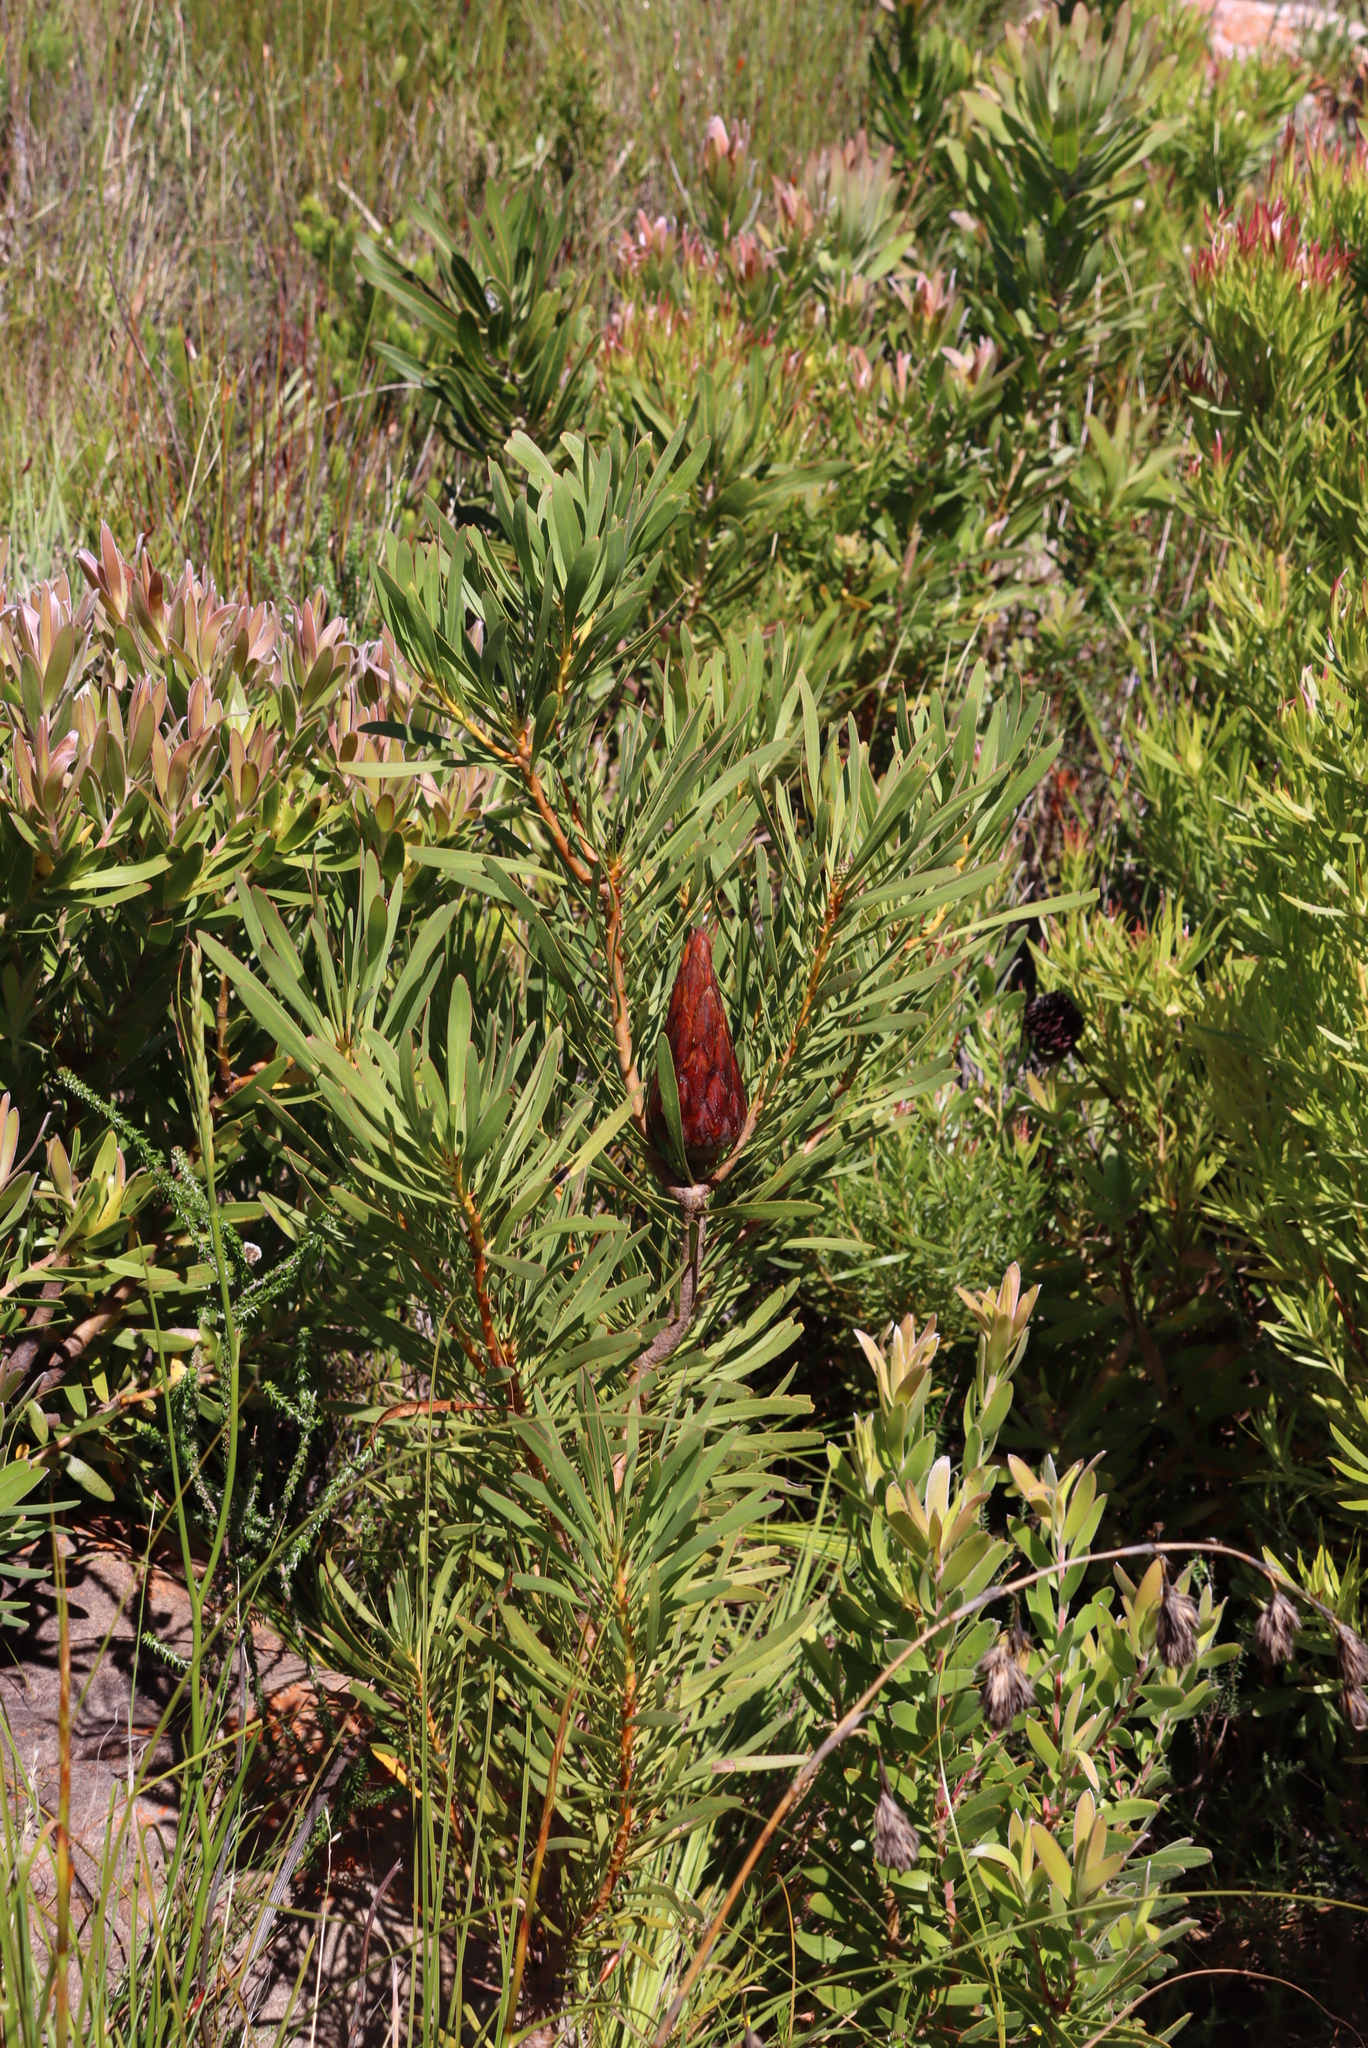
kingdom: Plantae
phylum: Tracheophyta
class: Magnoliopsida
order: Proteales
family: Proteaceae
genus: Protea
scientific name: Protea repens
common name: Sugarbush
